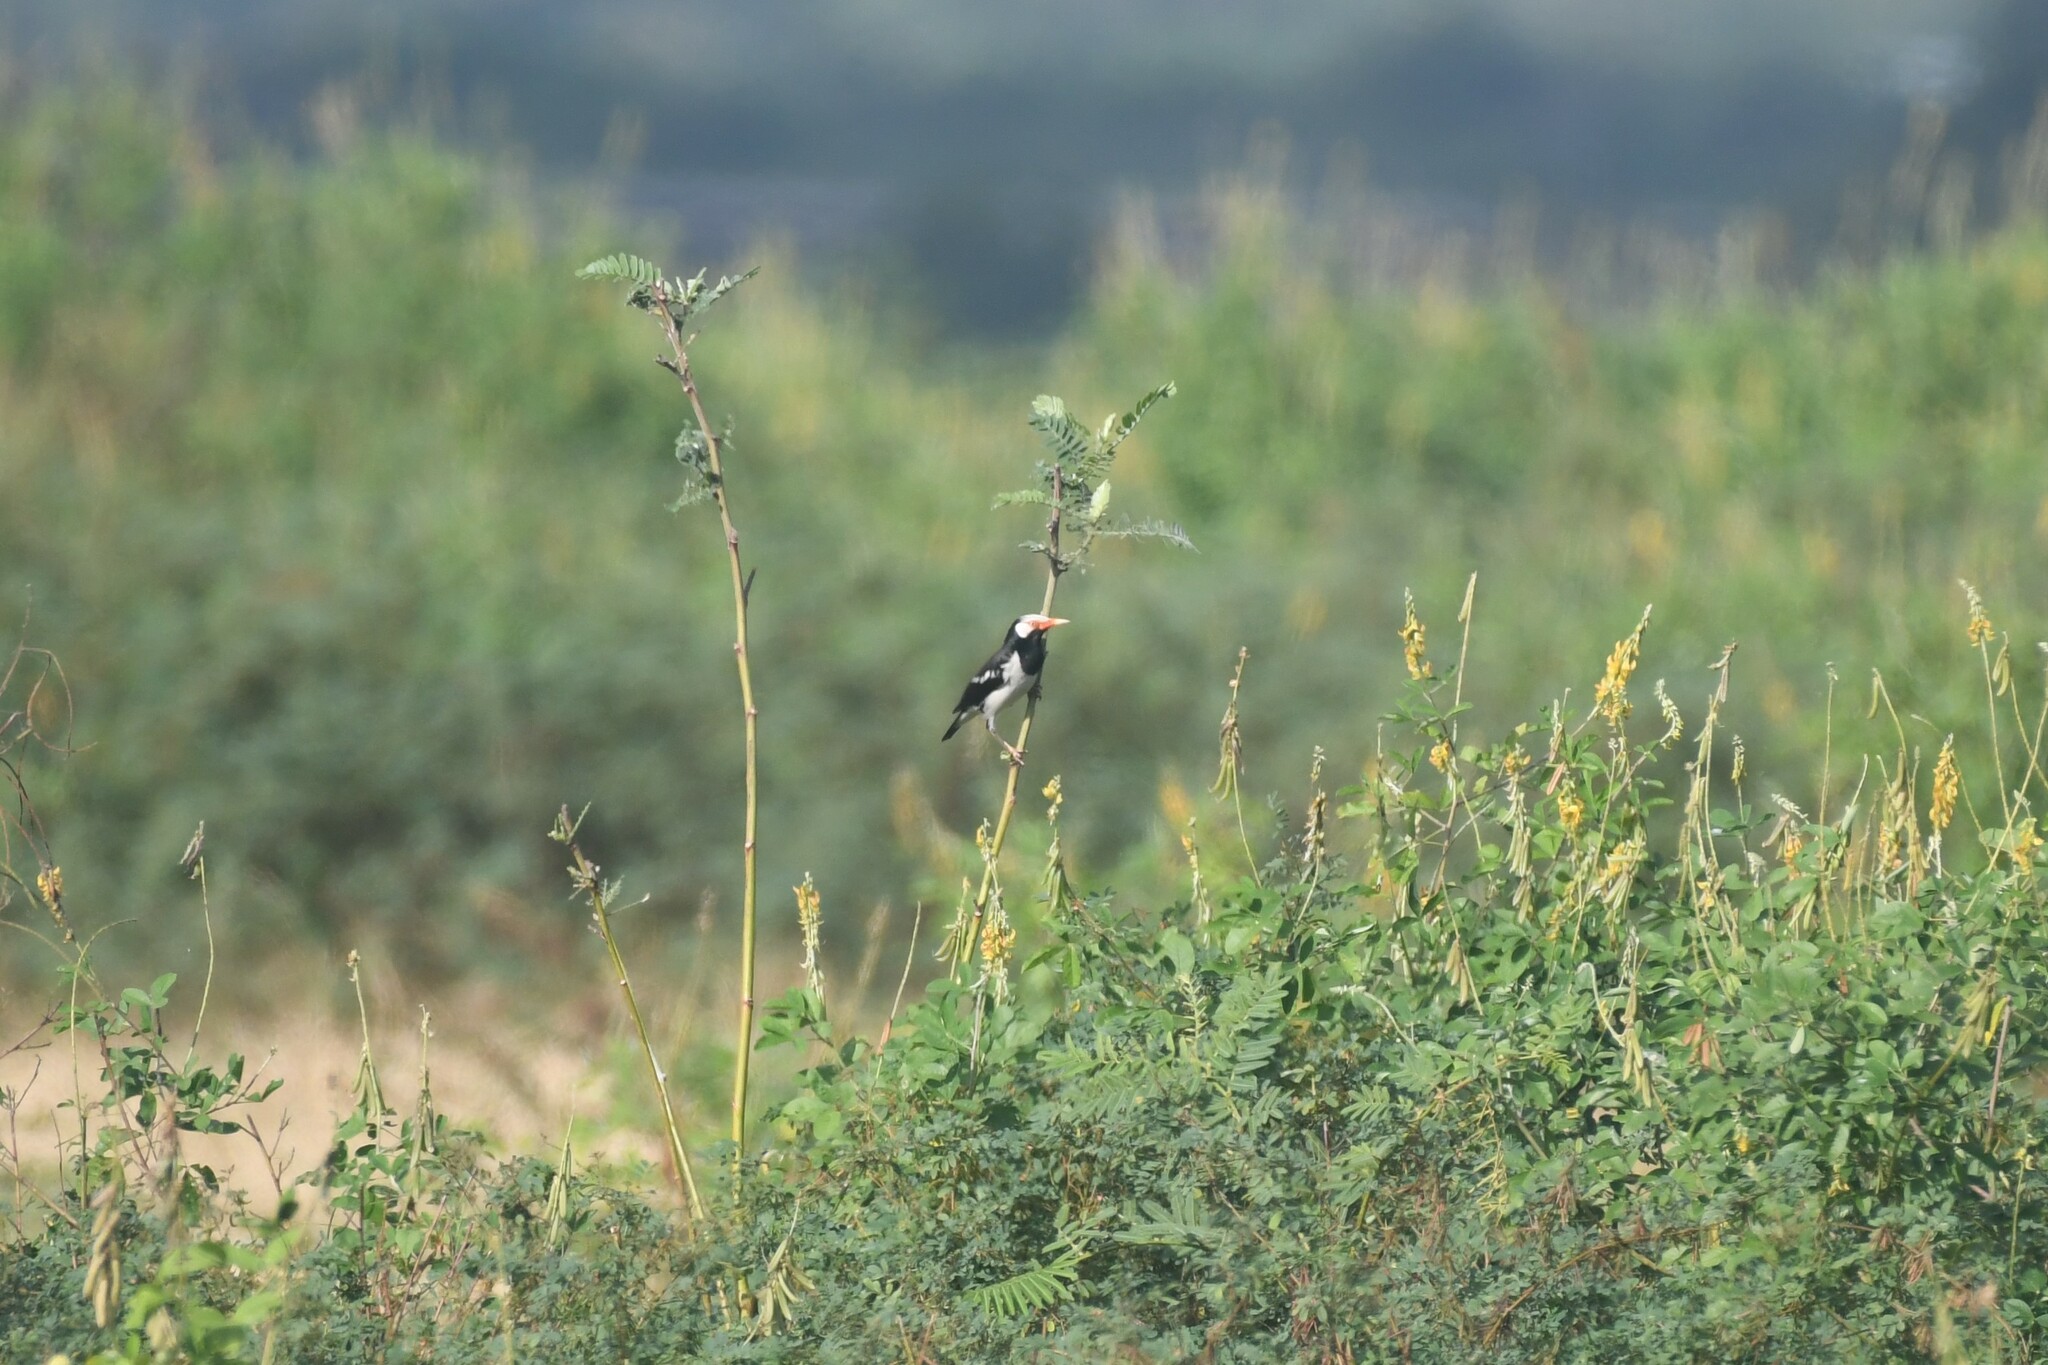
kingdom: Animalia
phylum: Chordata
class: Aves
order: Passeriformes
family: Sturnidae
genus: Gracupica
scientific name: Gracupica contra
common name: Pied myna
